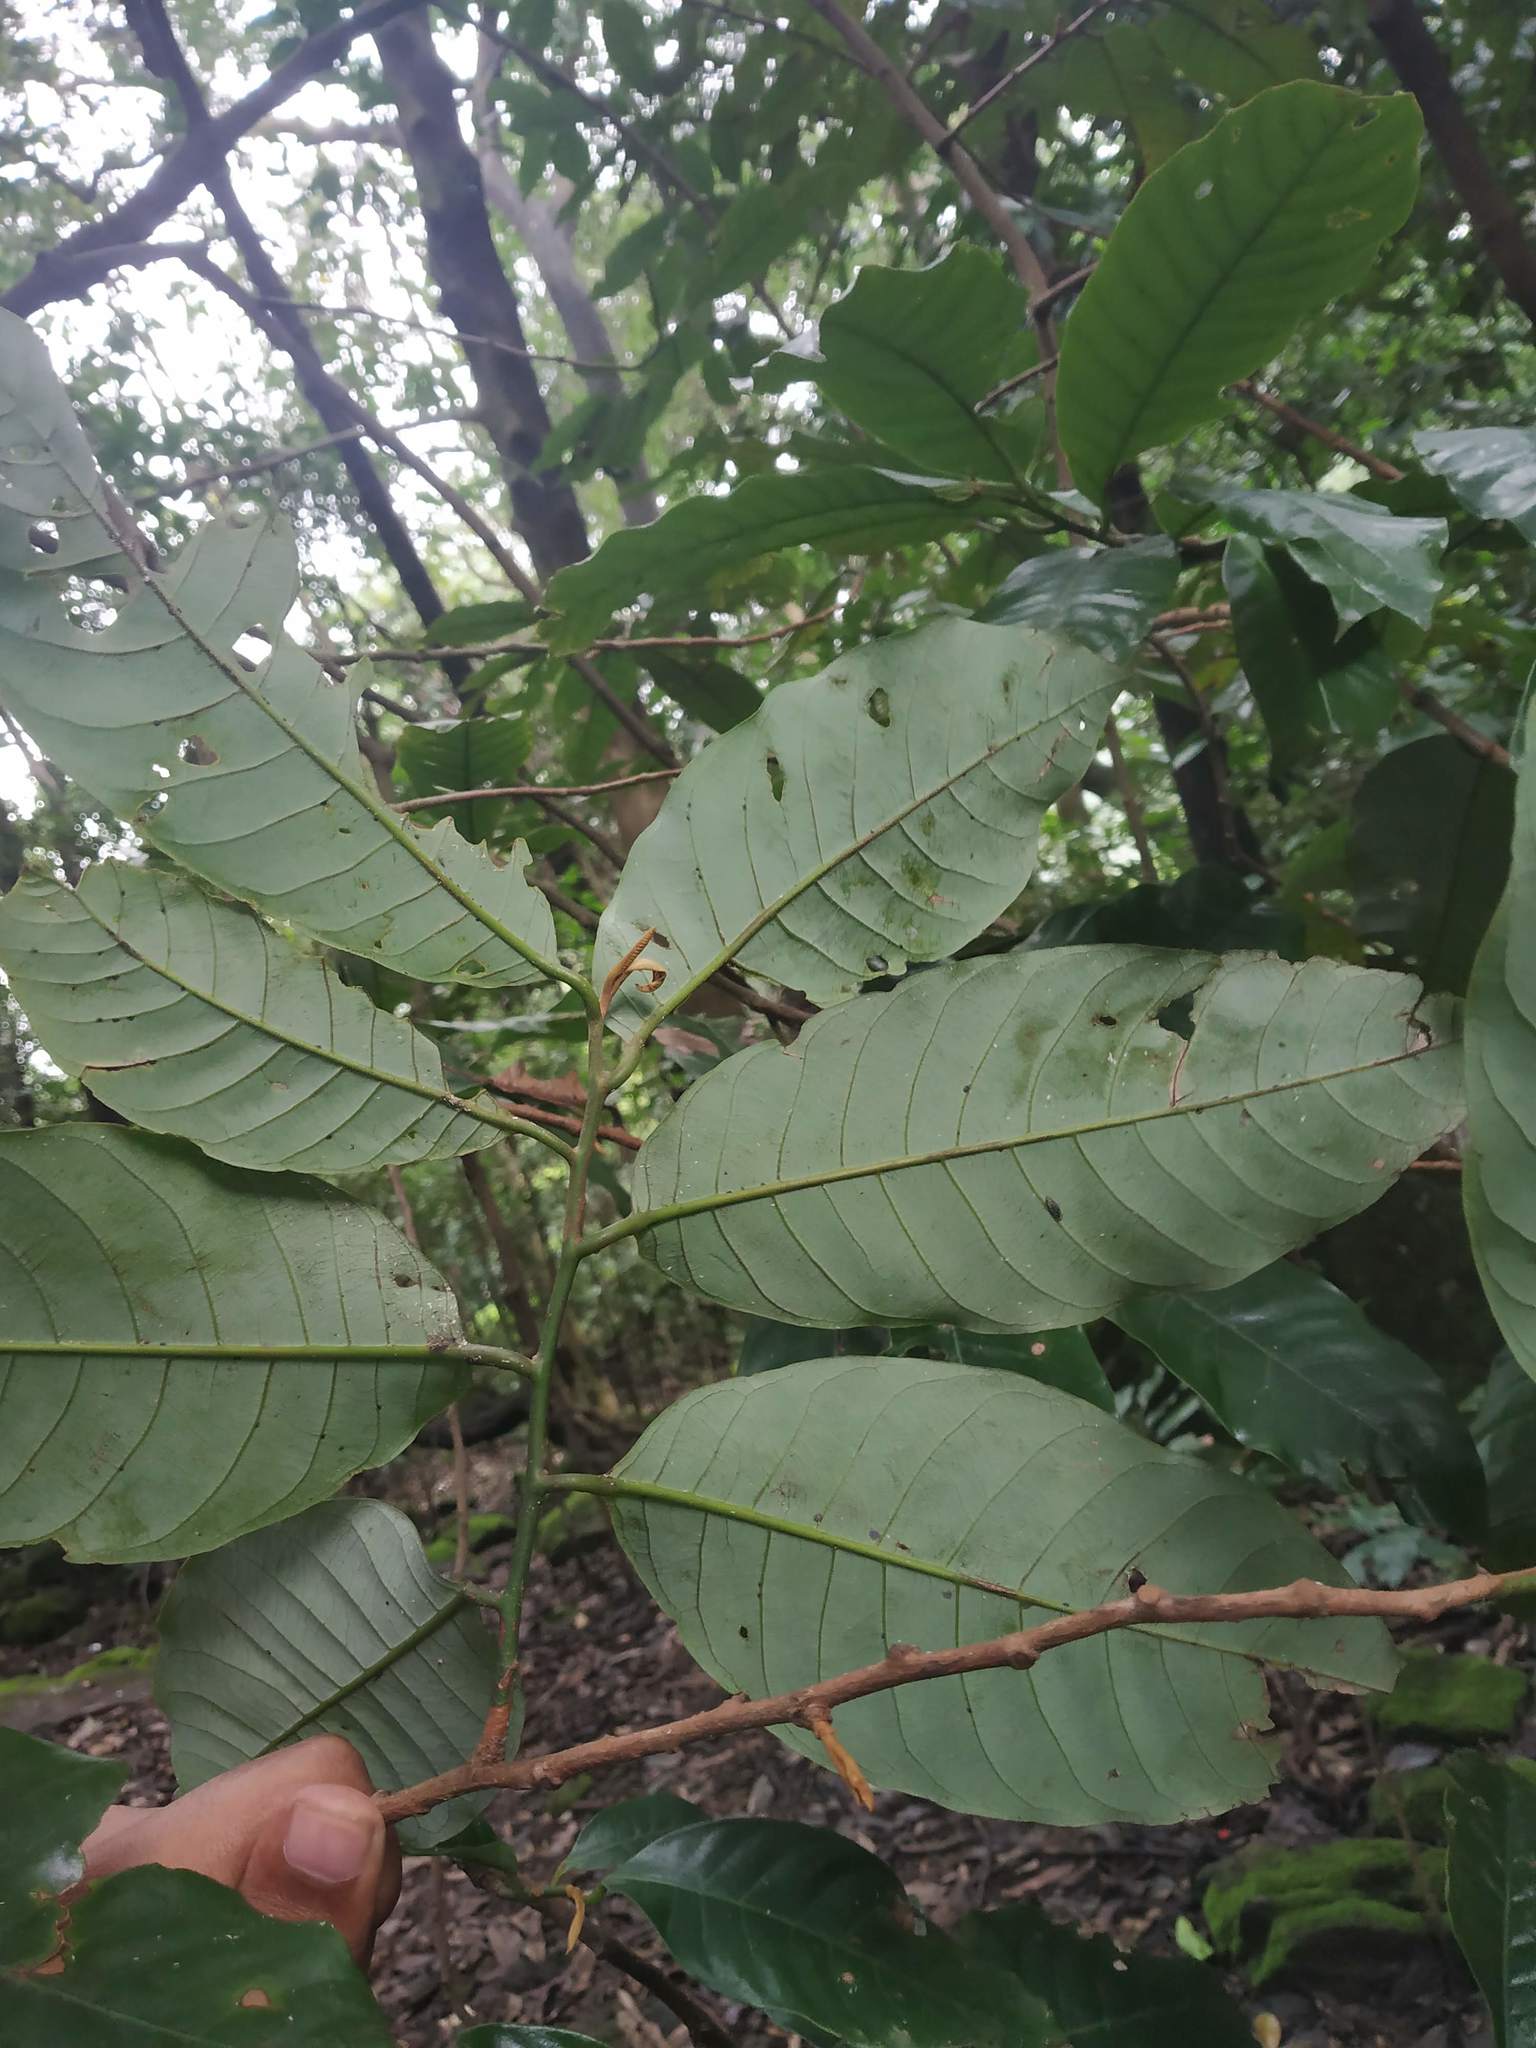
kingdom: Plantae
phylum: Tracheophyta
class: Magnoliopsida
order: Magnoliales
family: Myristicaceae
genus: Knema
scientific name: Knema attenuata
